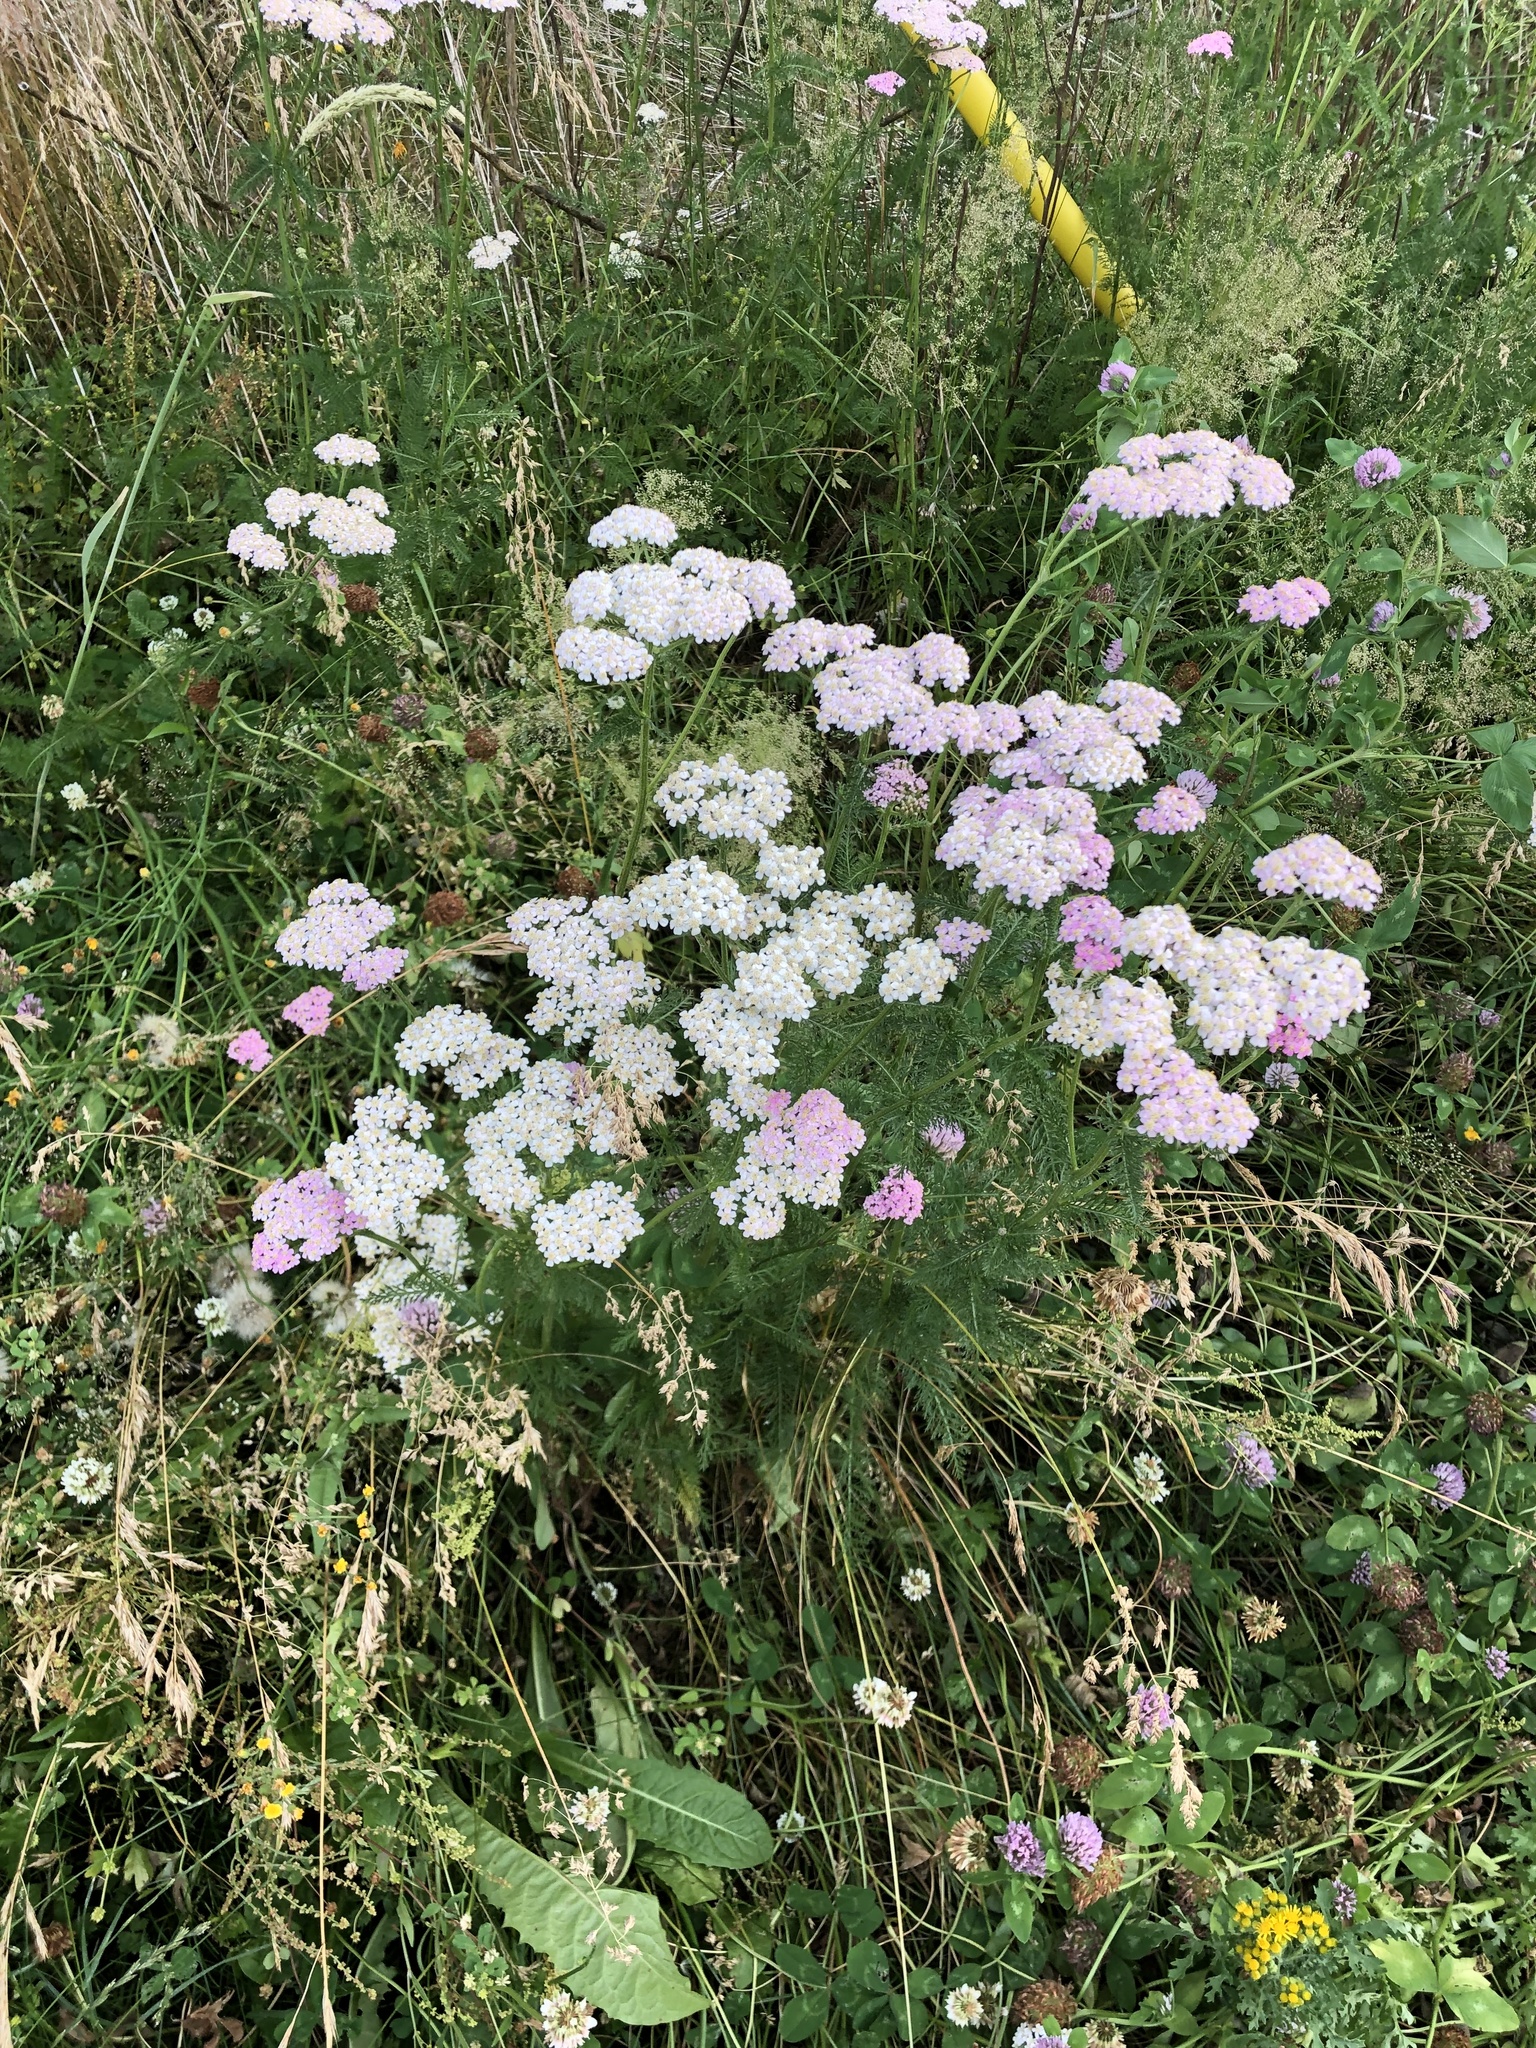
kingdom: Plantae
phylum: Tracheophyta
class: Magnoliopsida
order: Asterales
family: Asteraceae
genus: Achillea
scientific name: Achillea millefolium
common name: Yarrow
